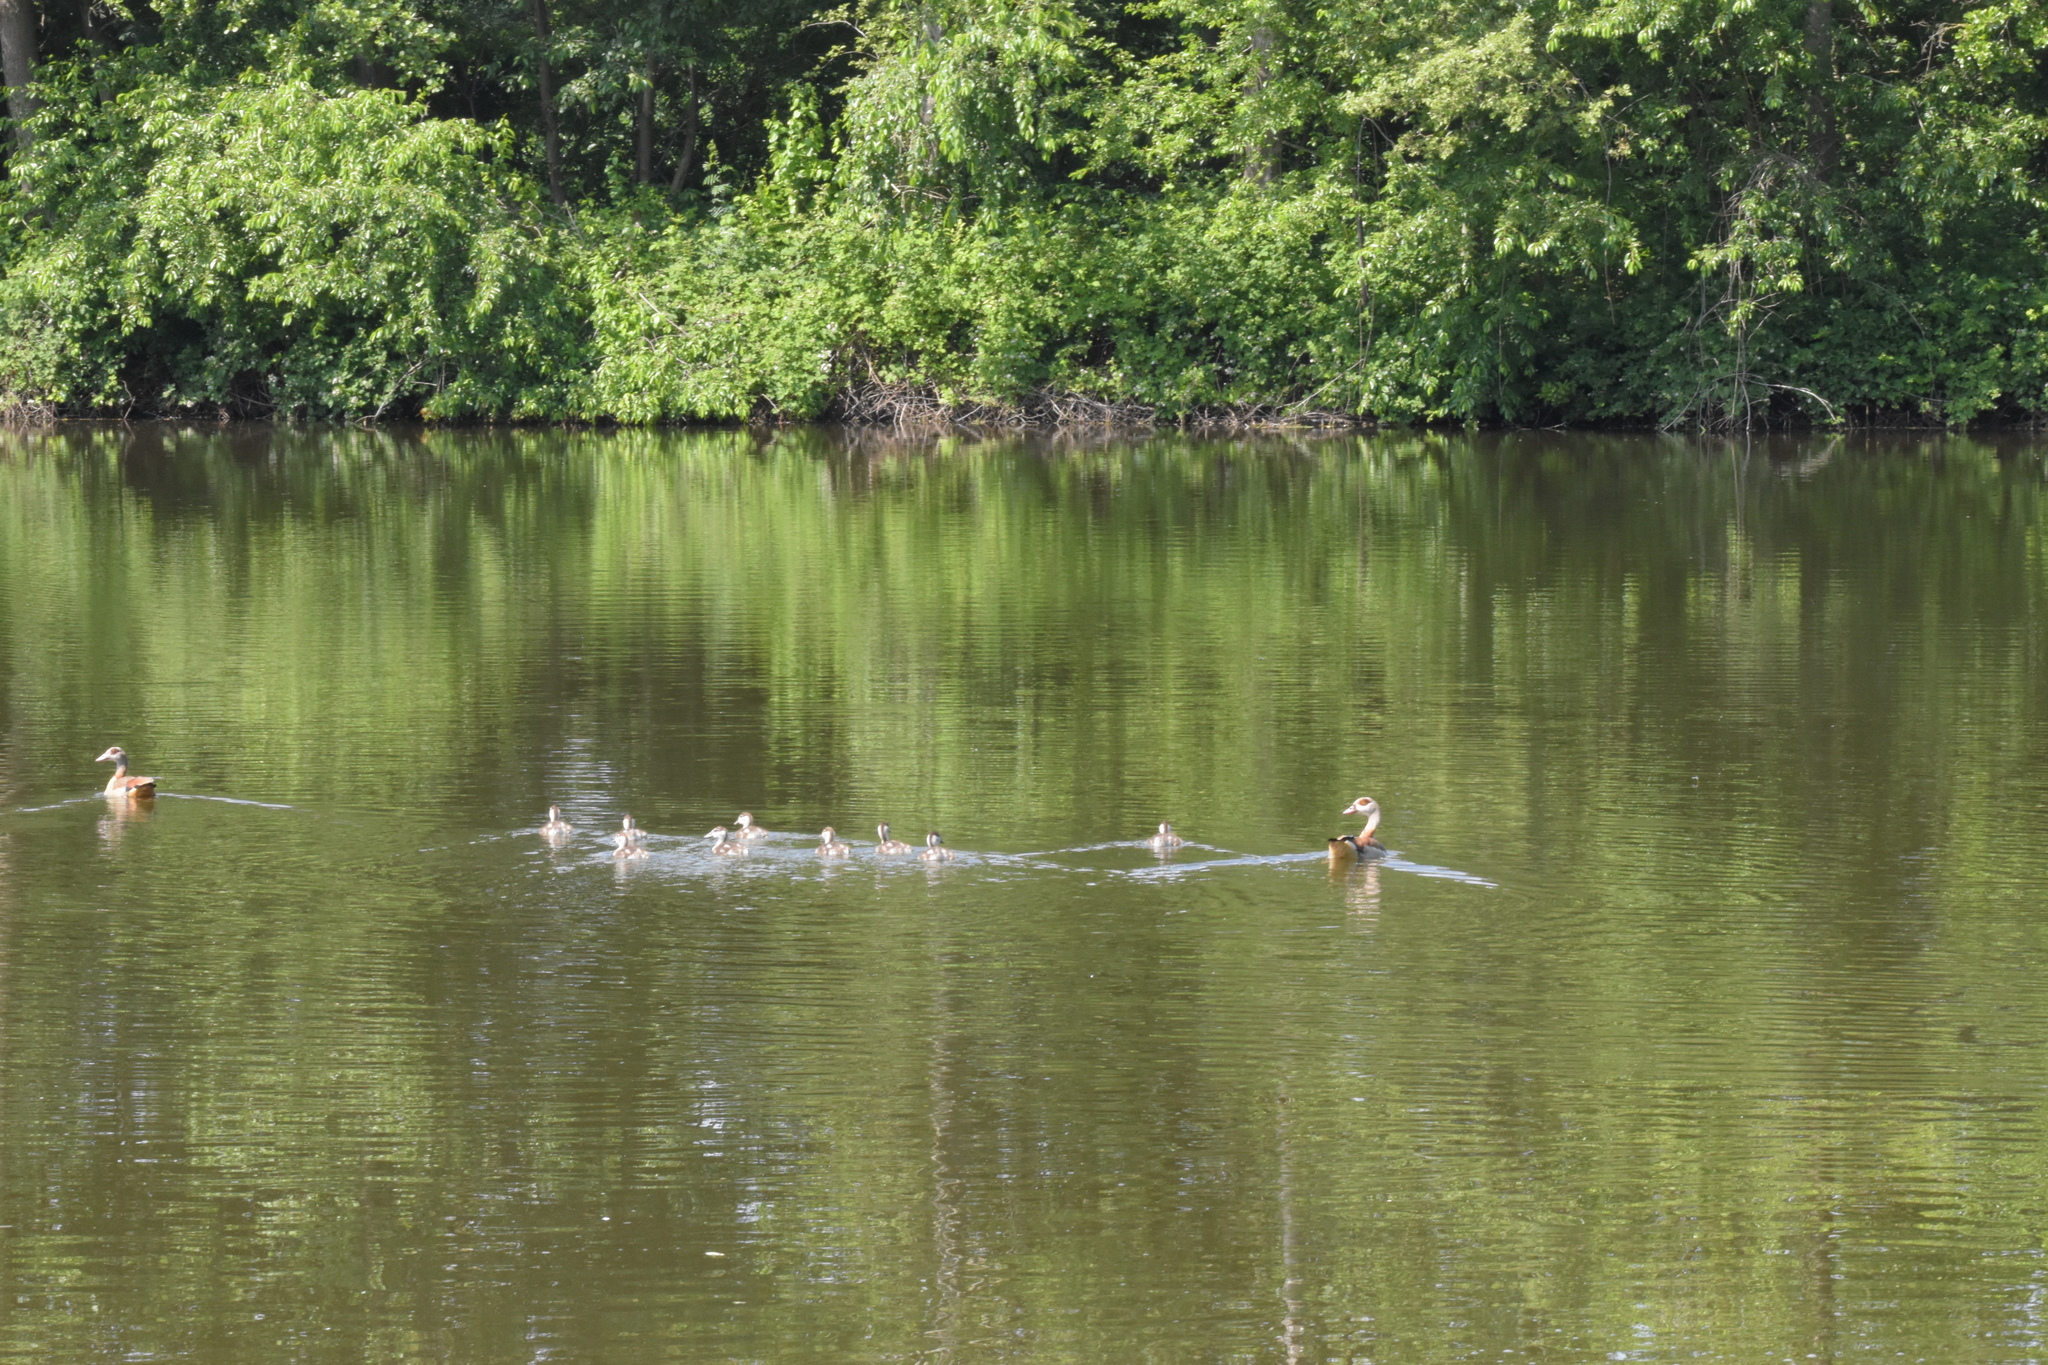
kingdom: Animalia
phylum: Chordata
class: Aves
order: Anseriformes
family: Anatidae
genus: Alopochen
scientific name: Alopochen aegyptiaca
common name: Egyptian goose
